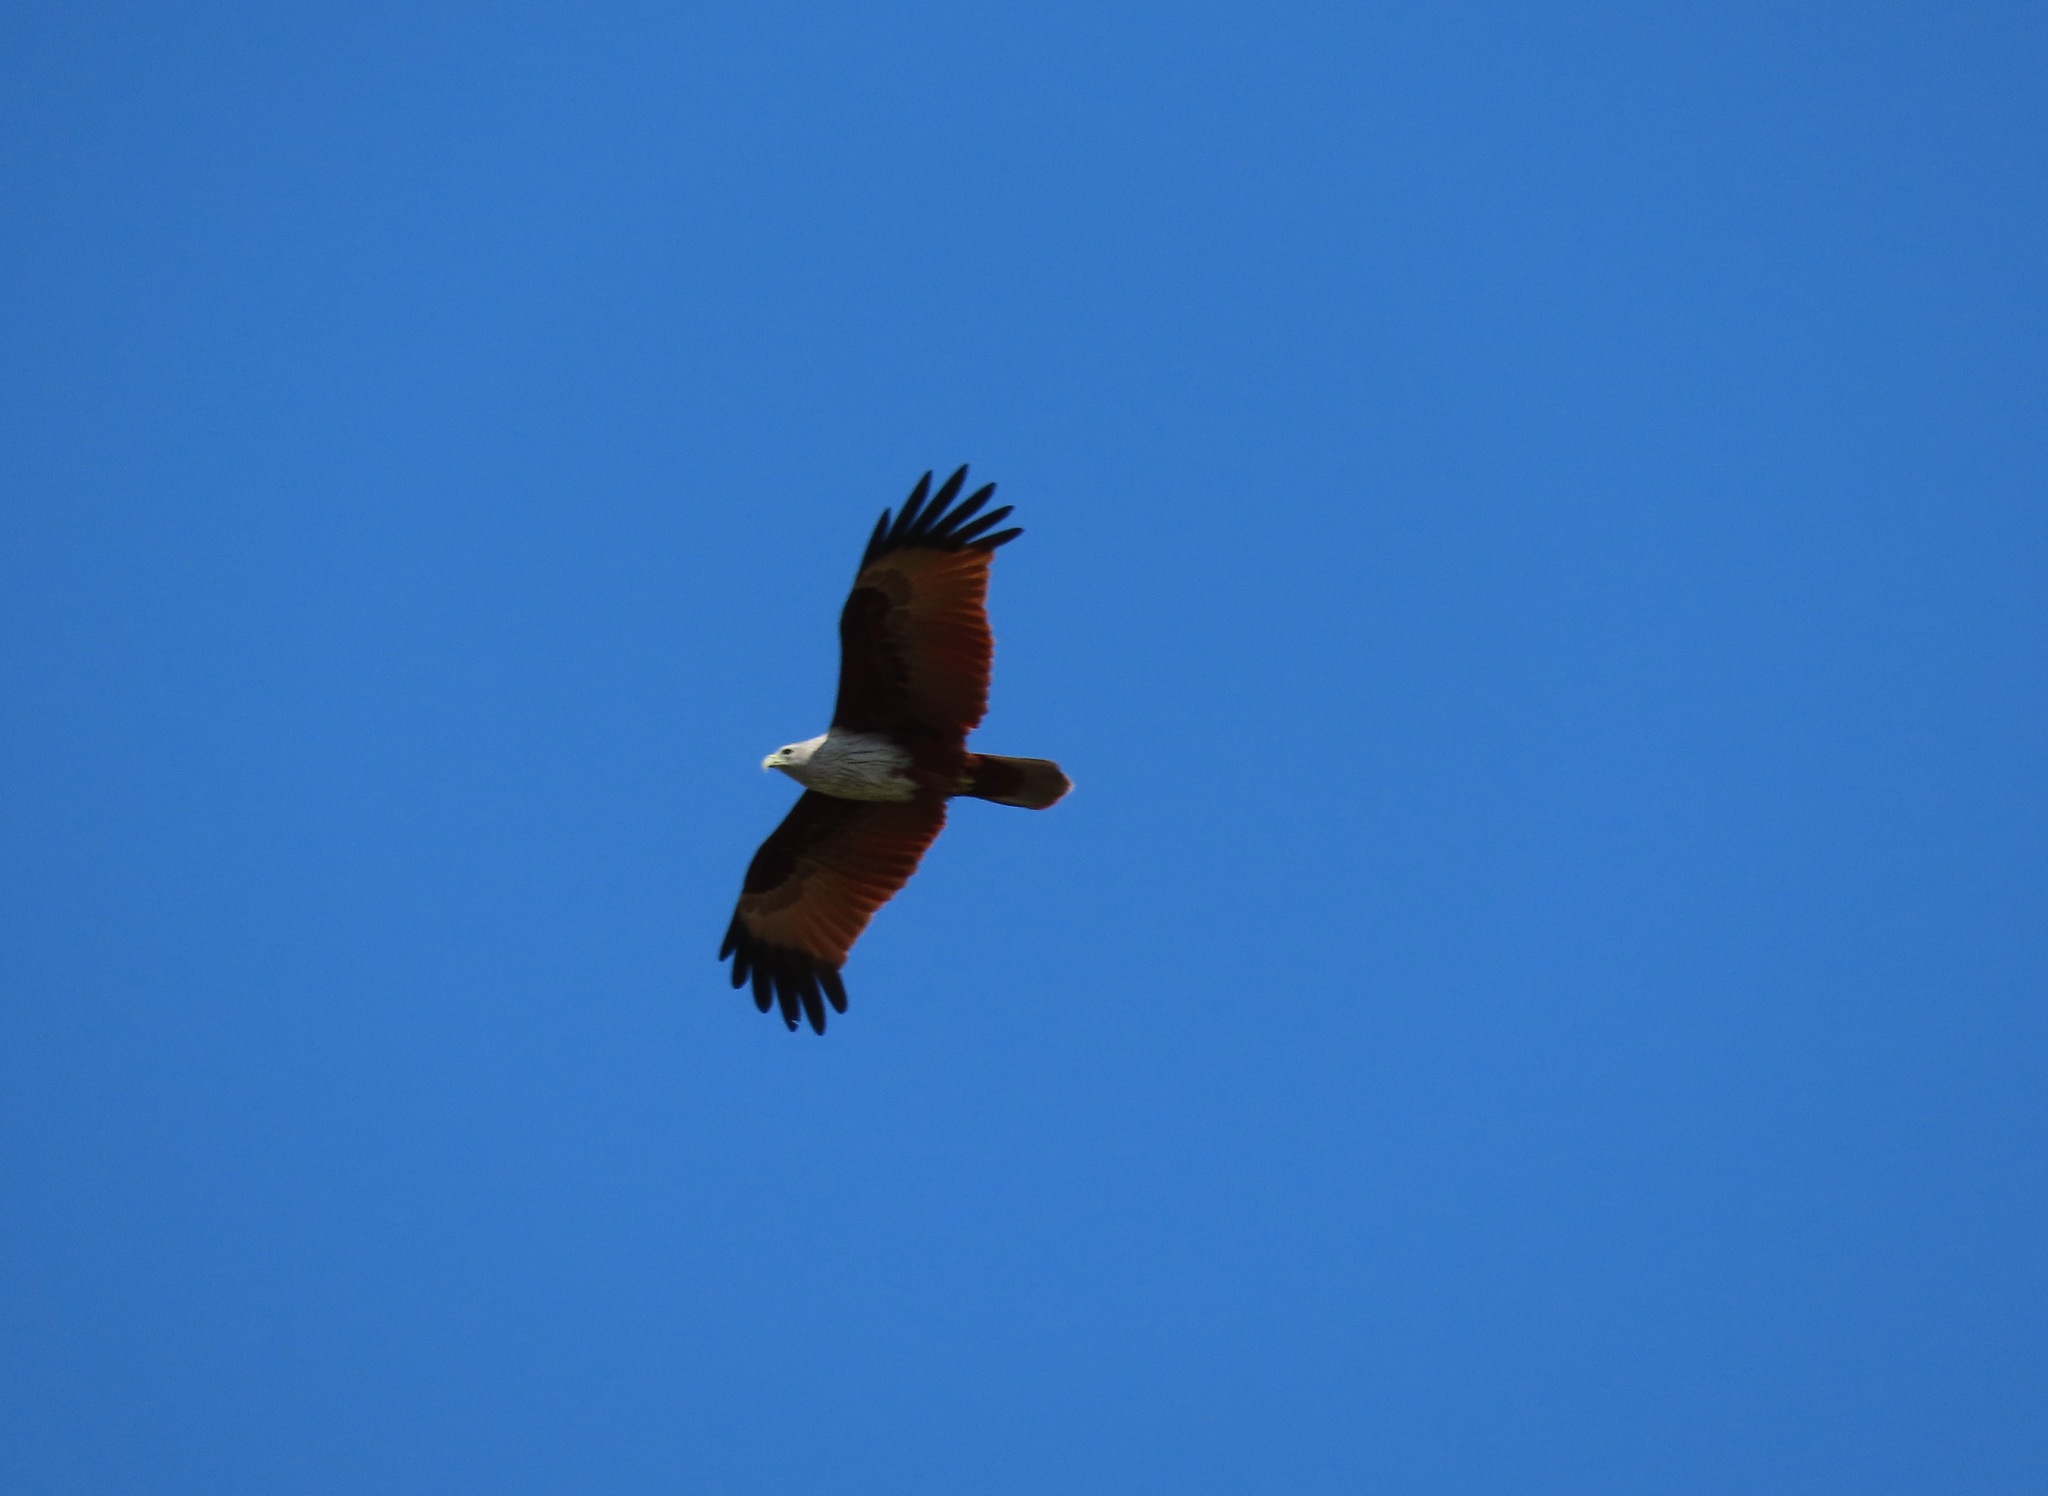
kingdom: Animalia
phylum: Chordata
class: Aves
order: Accipitriformes
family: Accipitridae
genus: Haliastur
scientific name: Haliastur indus
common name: Brahminy kite
